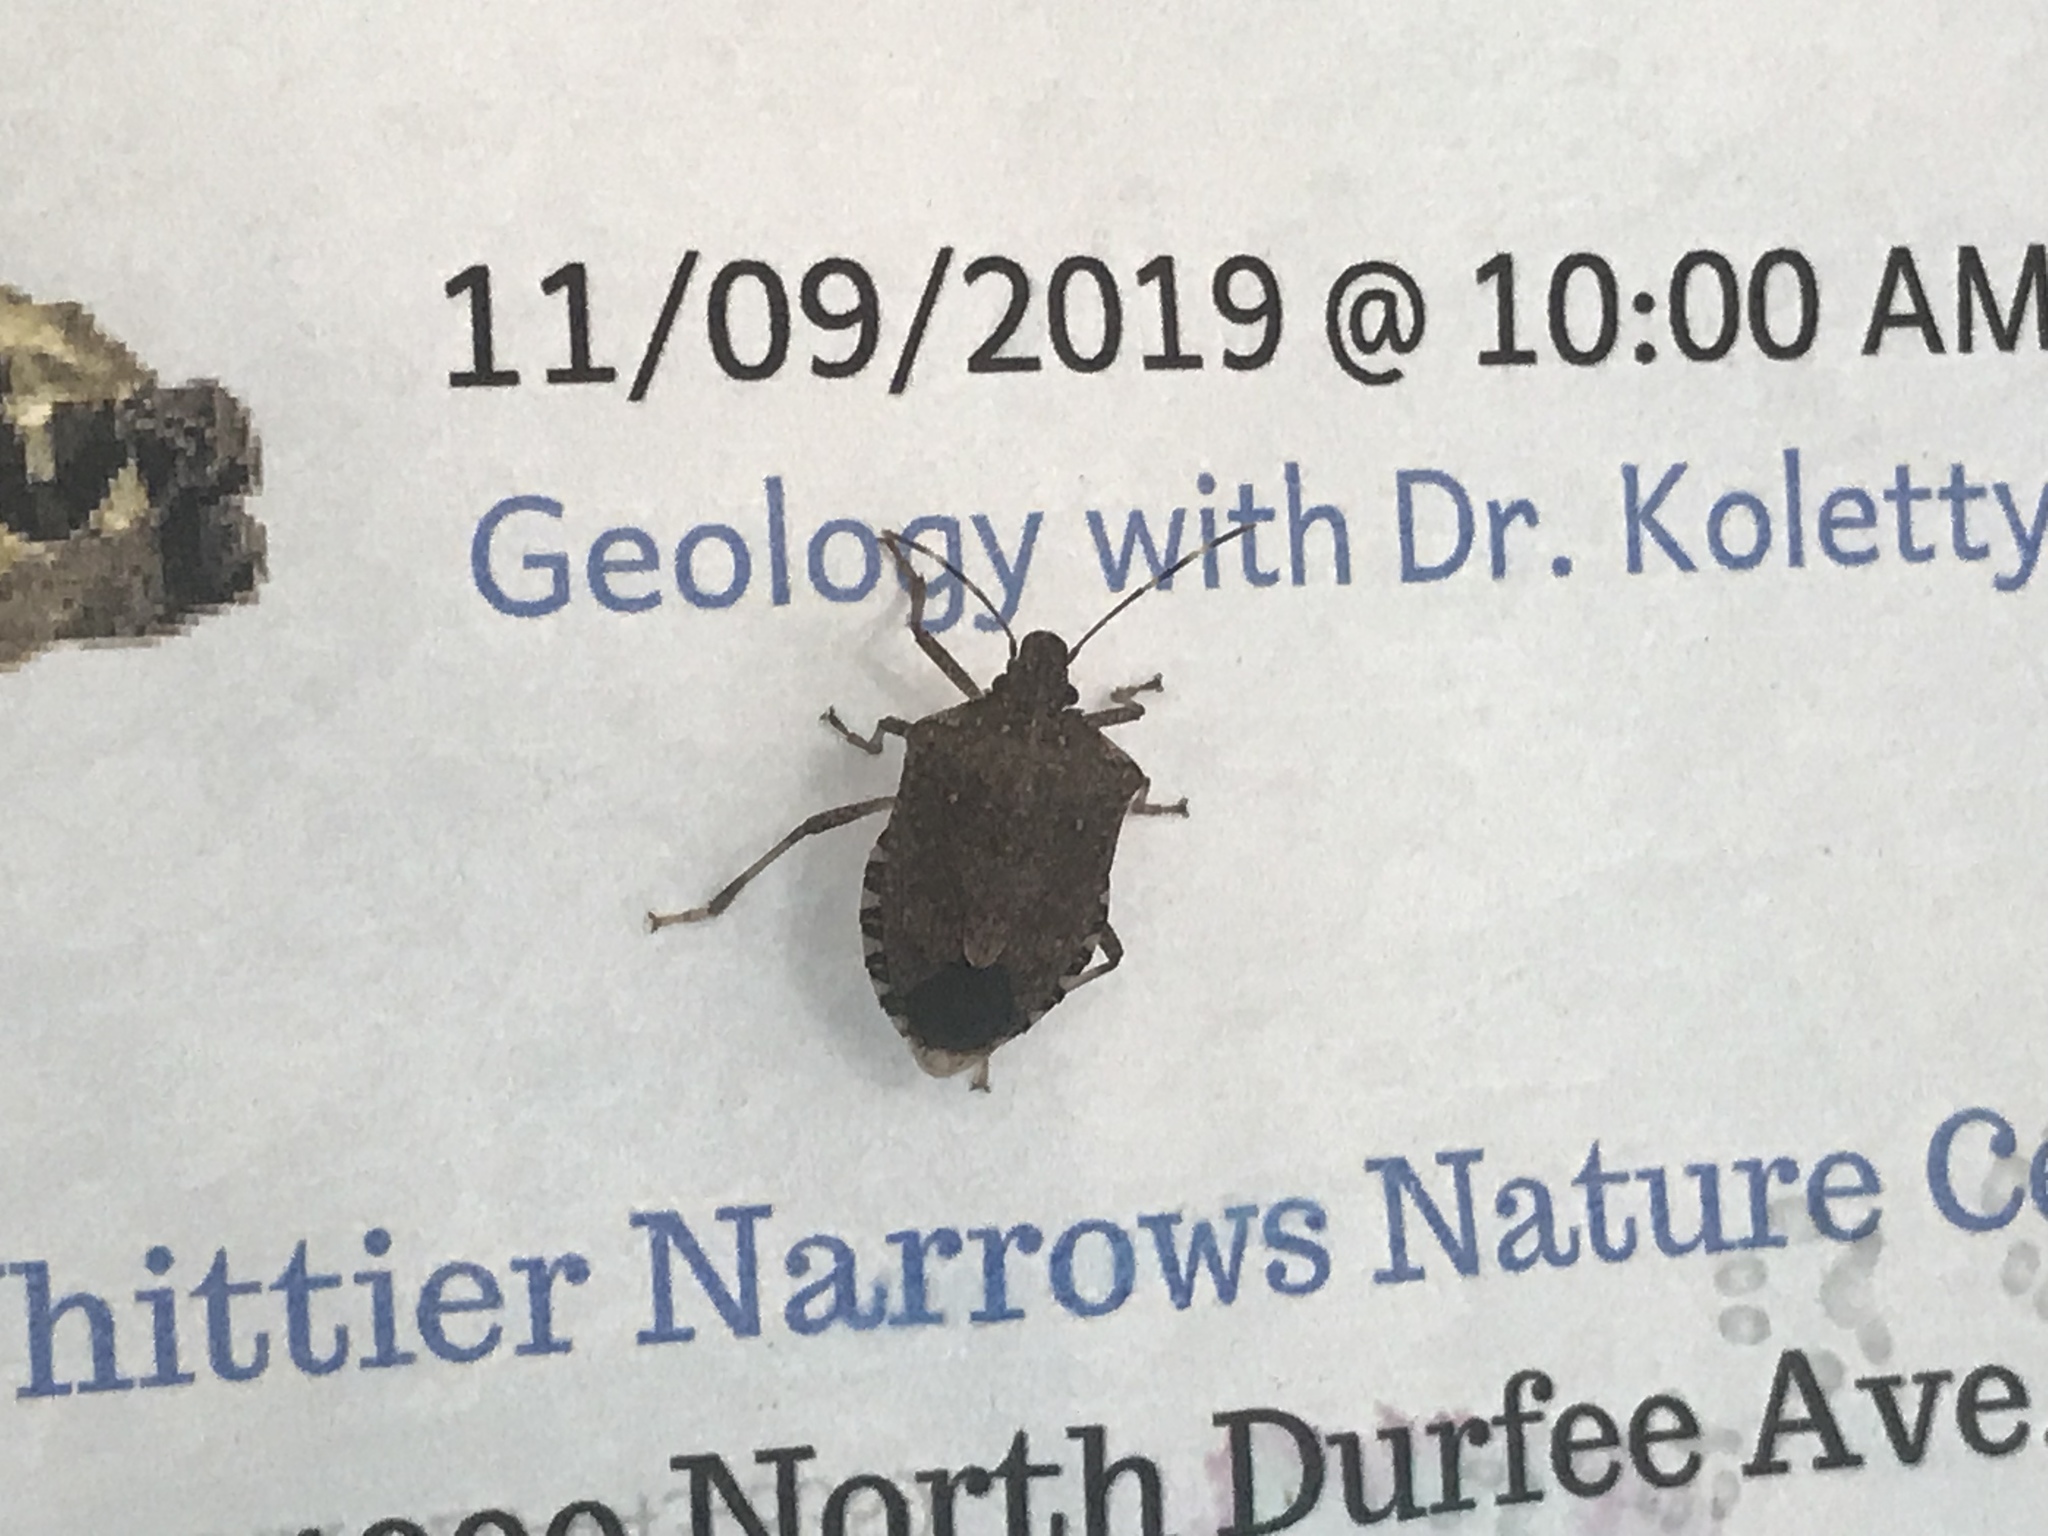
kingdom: Animalia
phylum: Arthropoda
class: Insecta
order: Hemiptera
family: Pentatomidae
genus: Halyomorpha
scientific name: Halyomorpha halys
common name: Brown marmorated stink bug
